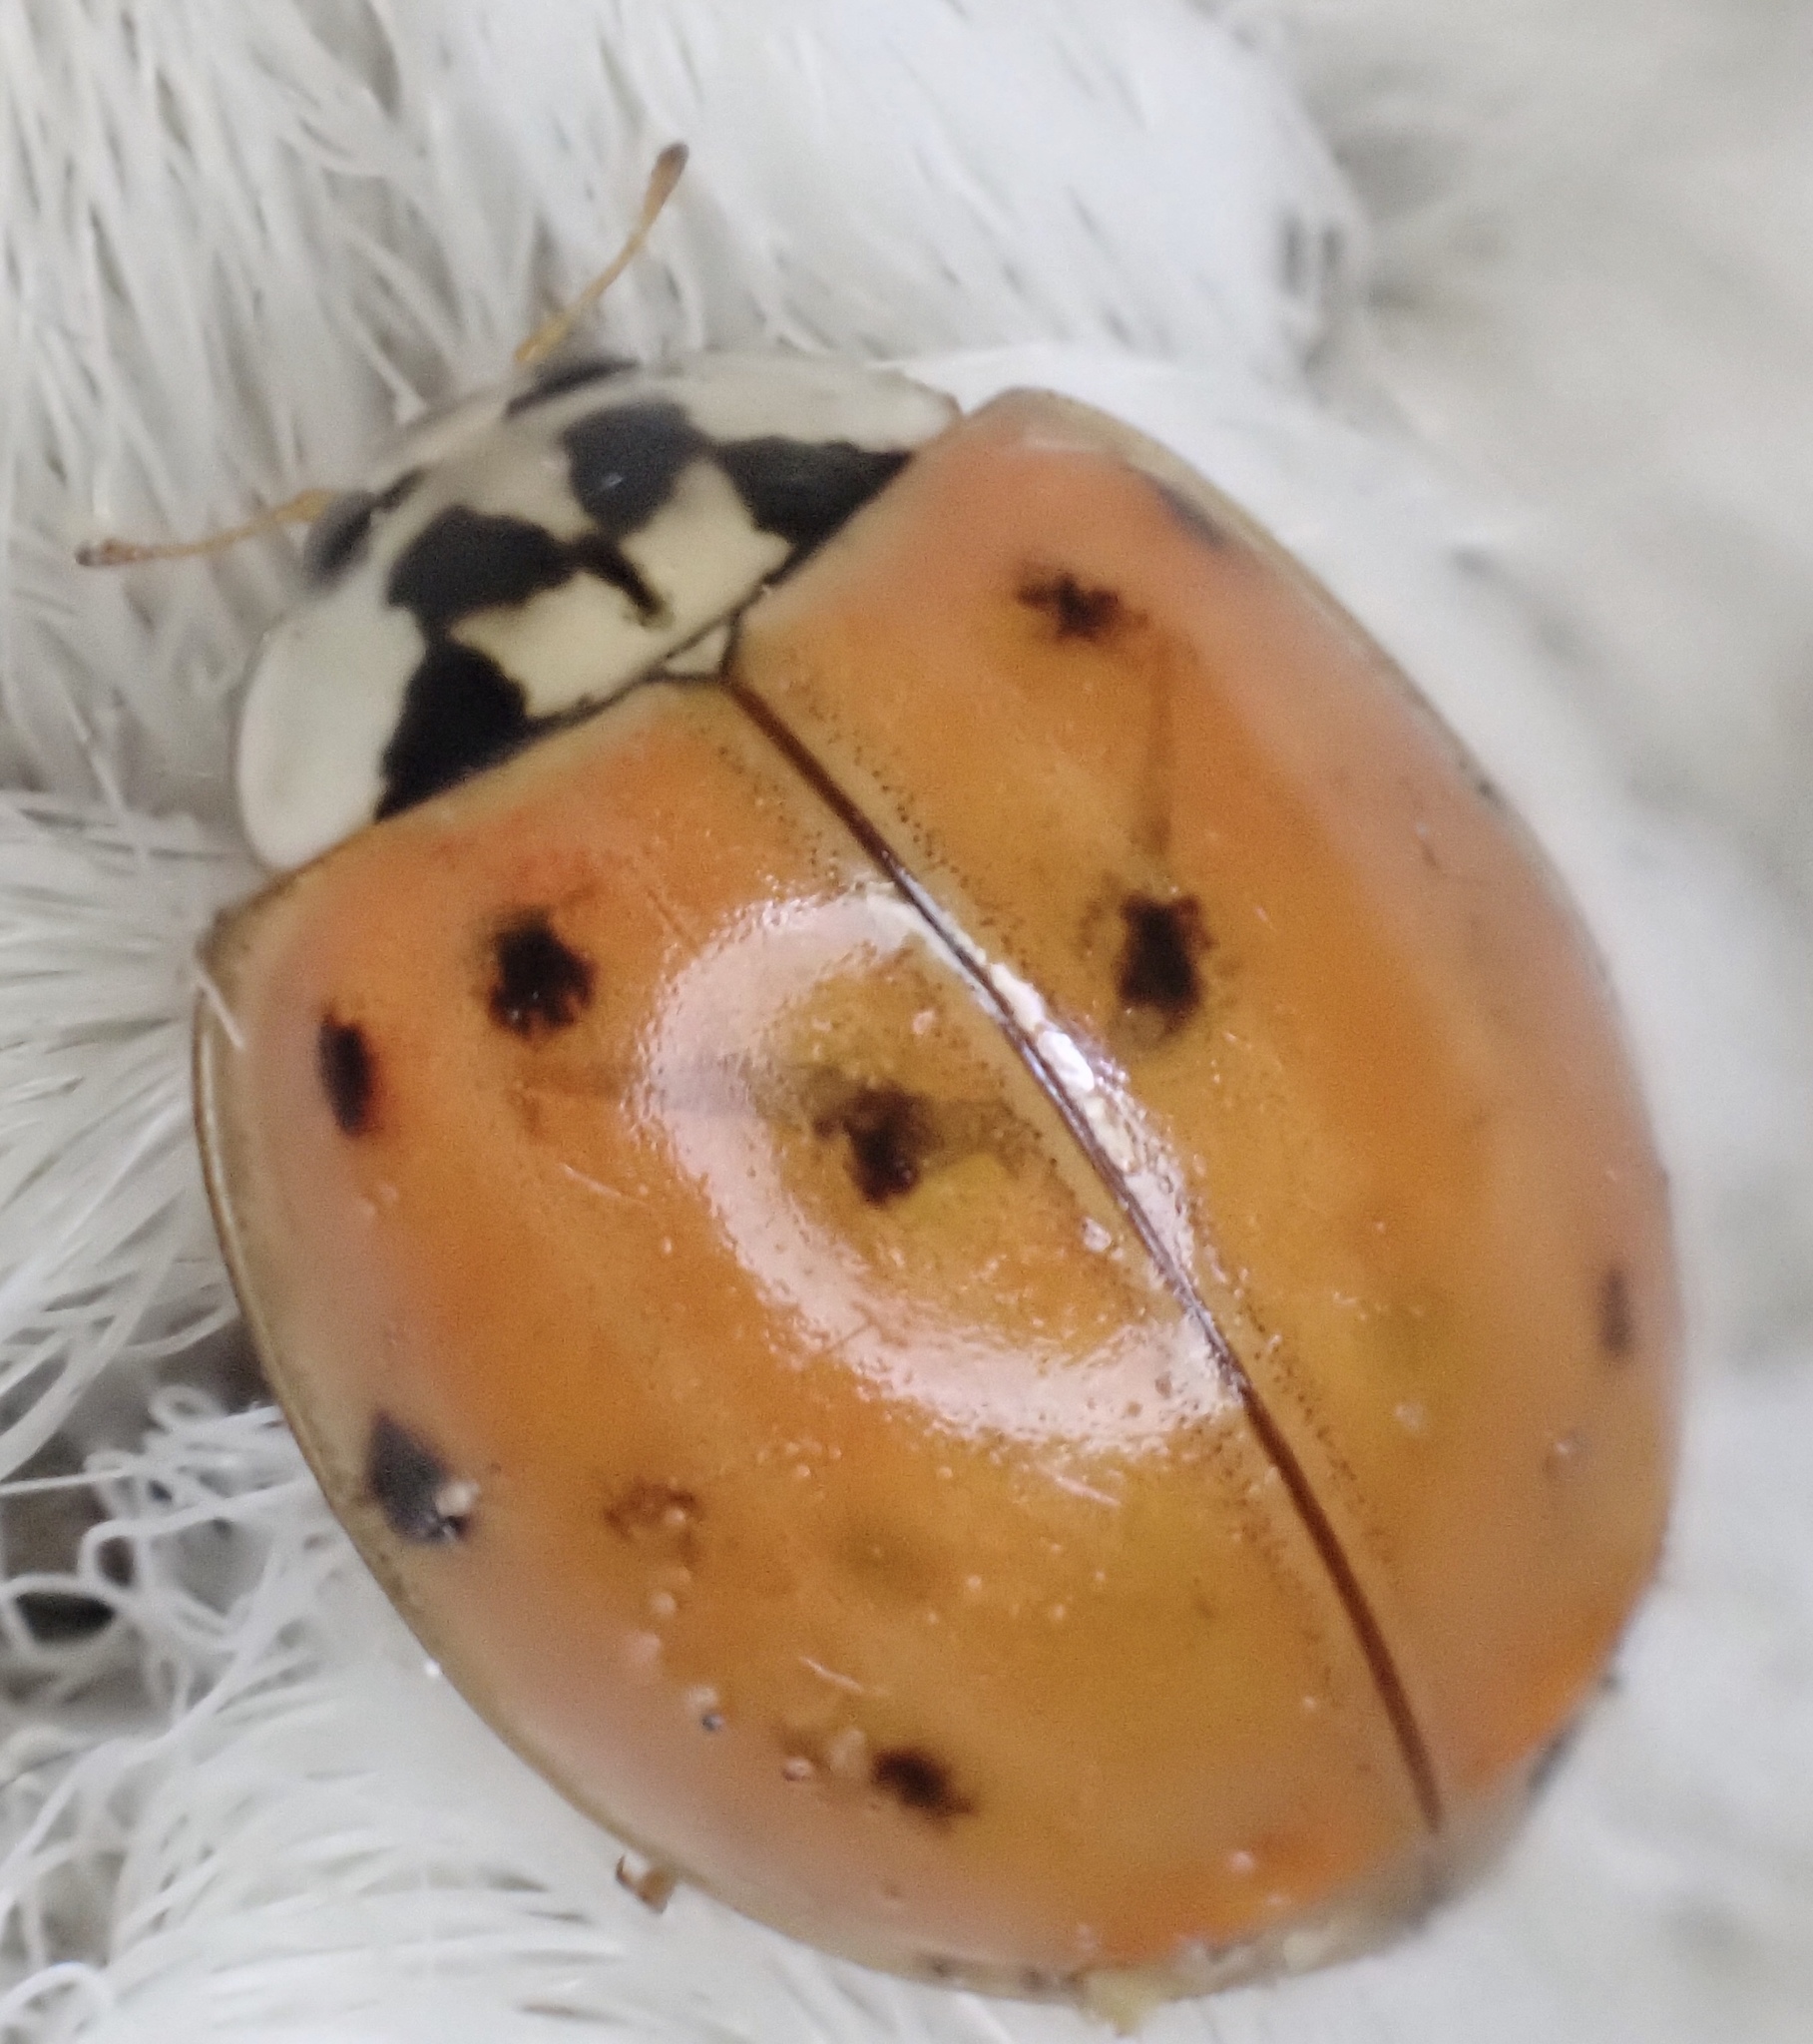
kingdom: Animalia
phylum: Arthropoda
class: Insecta
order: Coleoptera
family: Coccinellidae
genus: Harmonia
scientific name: Harmonia axyridis
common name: Harlequin ladybird
